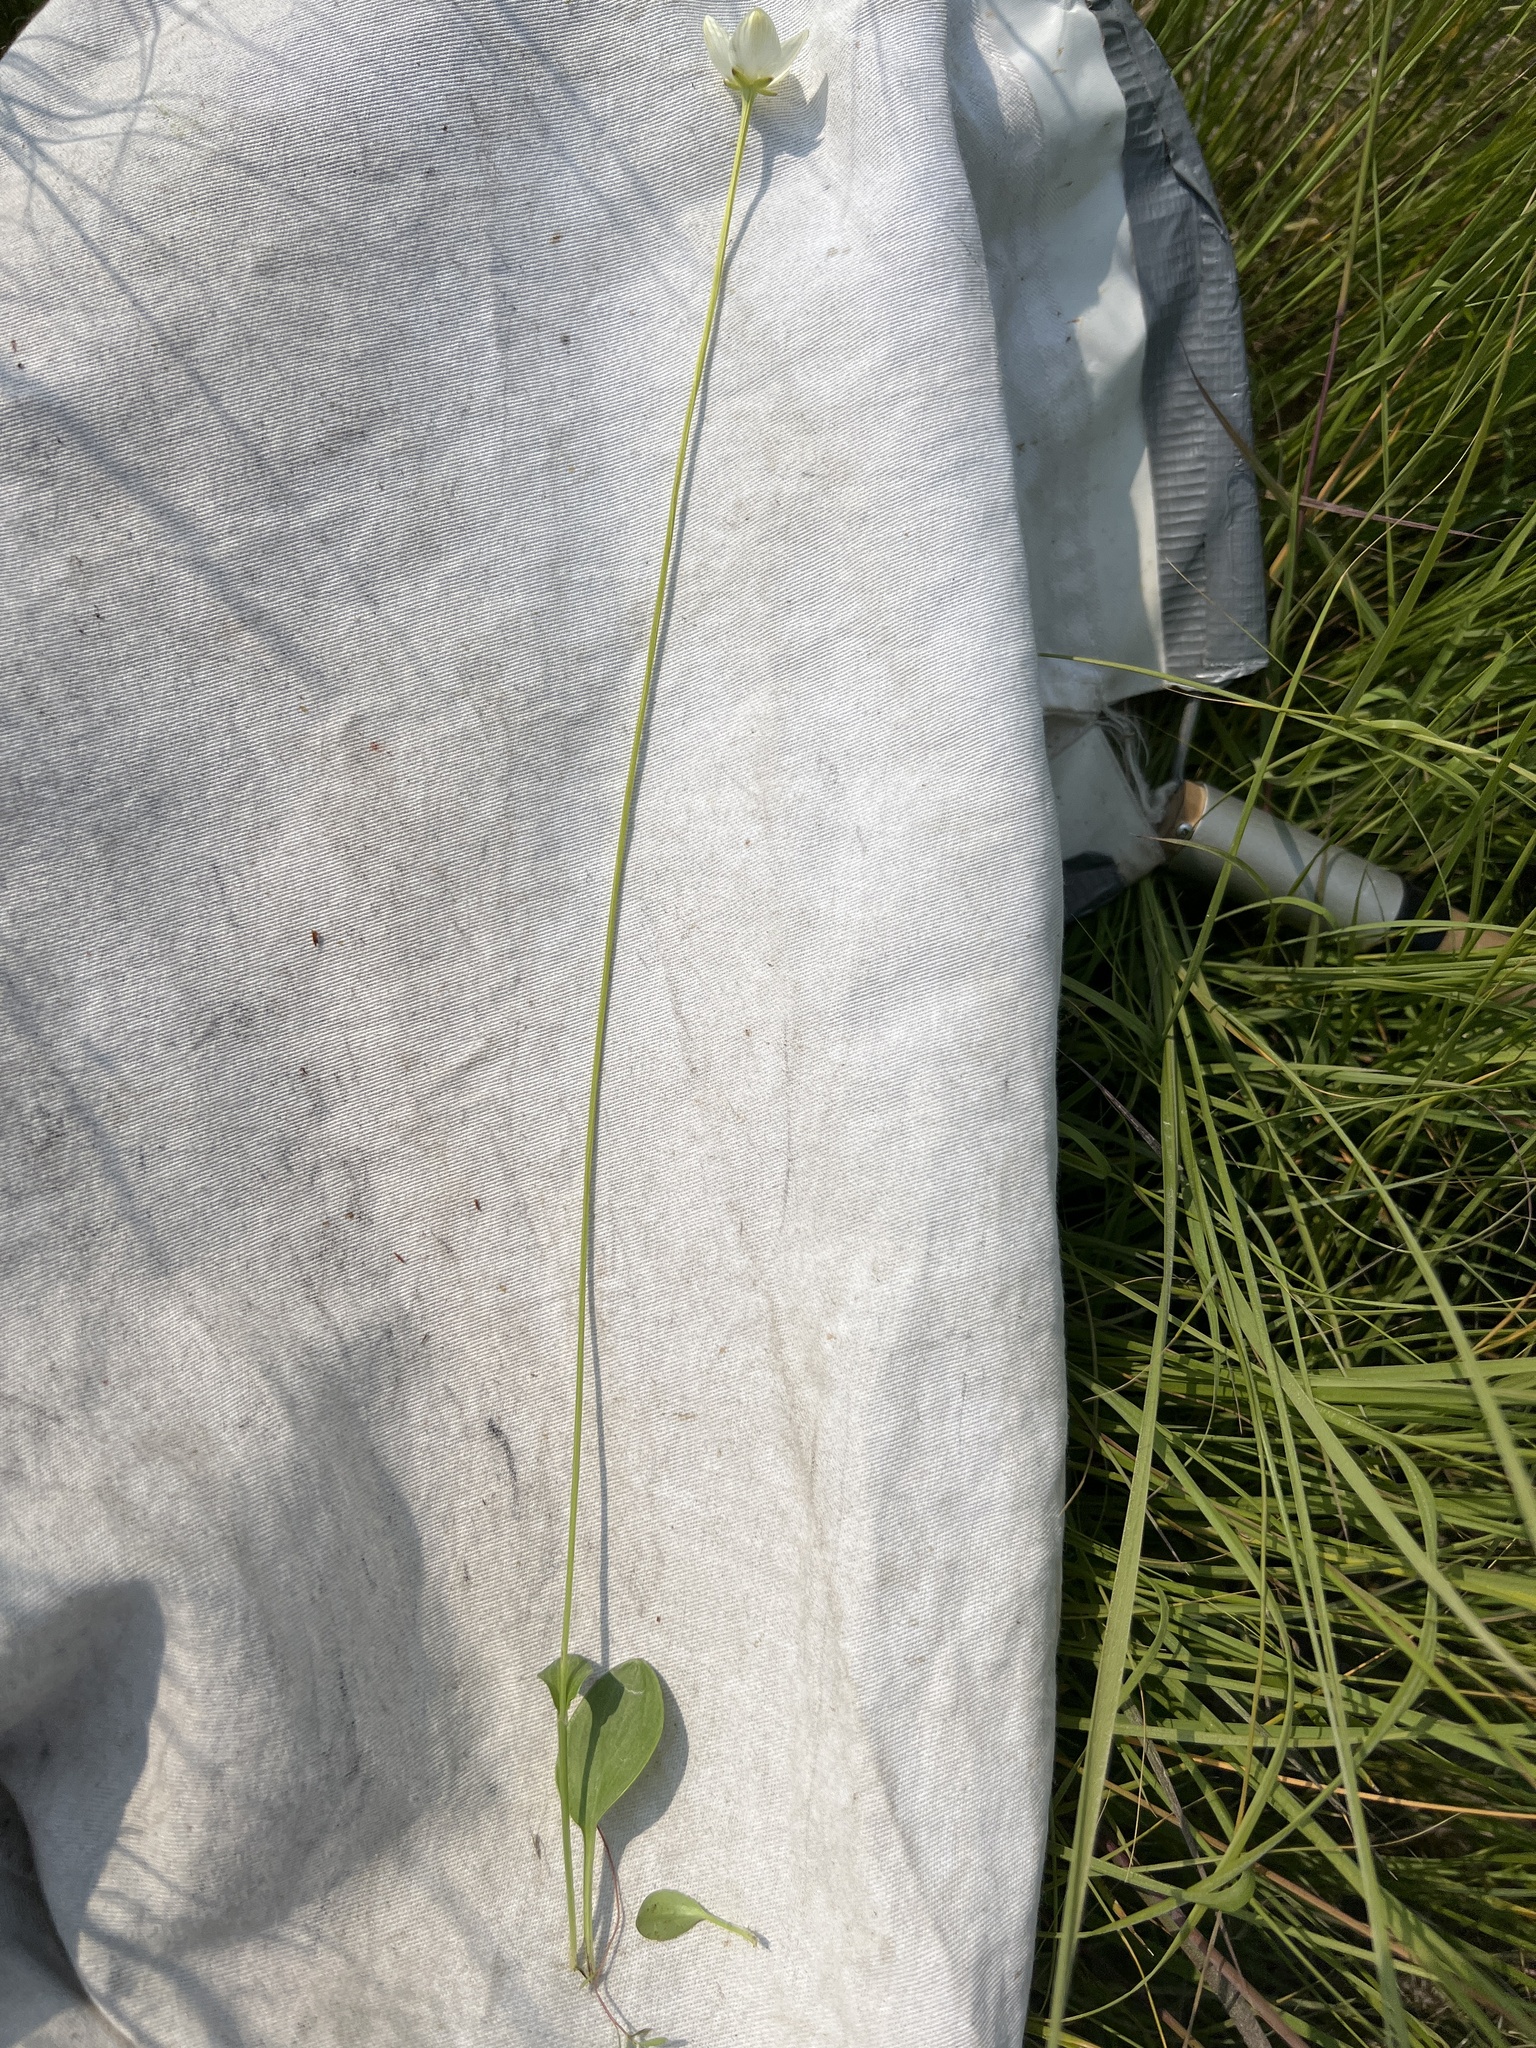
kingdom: Plantae
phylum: Tracheophyta
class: Magnoliopsida
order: Celastrales
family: Parnassiaceae
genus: Parnassia
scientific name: Parnassia glauca
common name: American grass-of-parnassus
